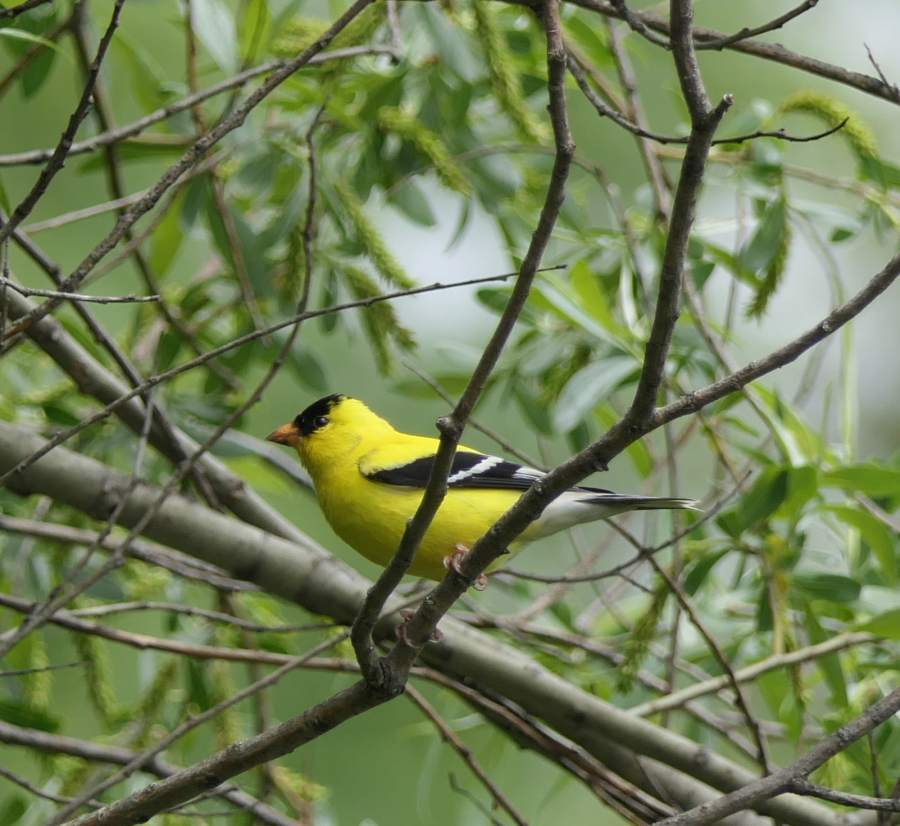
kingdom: Animalia
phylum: Chordata
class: Aves
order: Passeriformes
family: Fringillidae
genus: Spinus
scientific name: Spinus tristis
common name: American goldfinch
